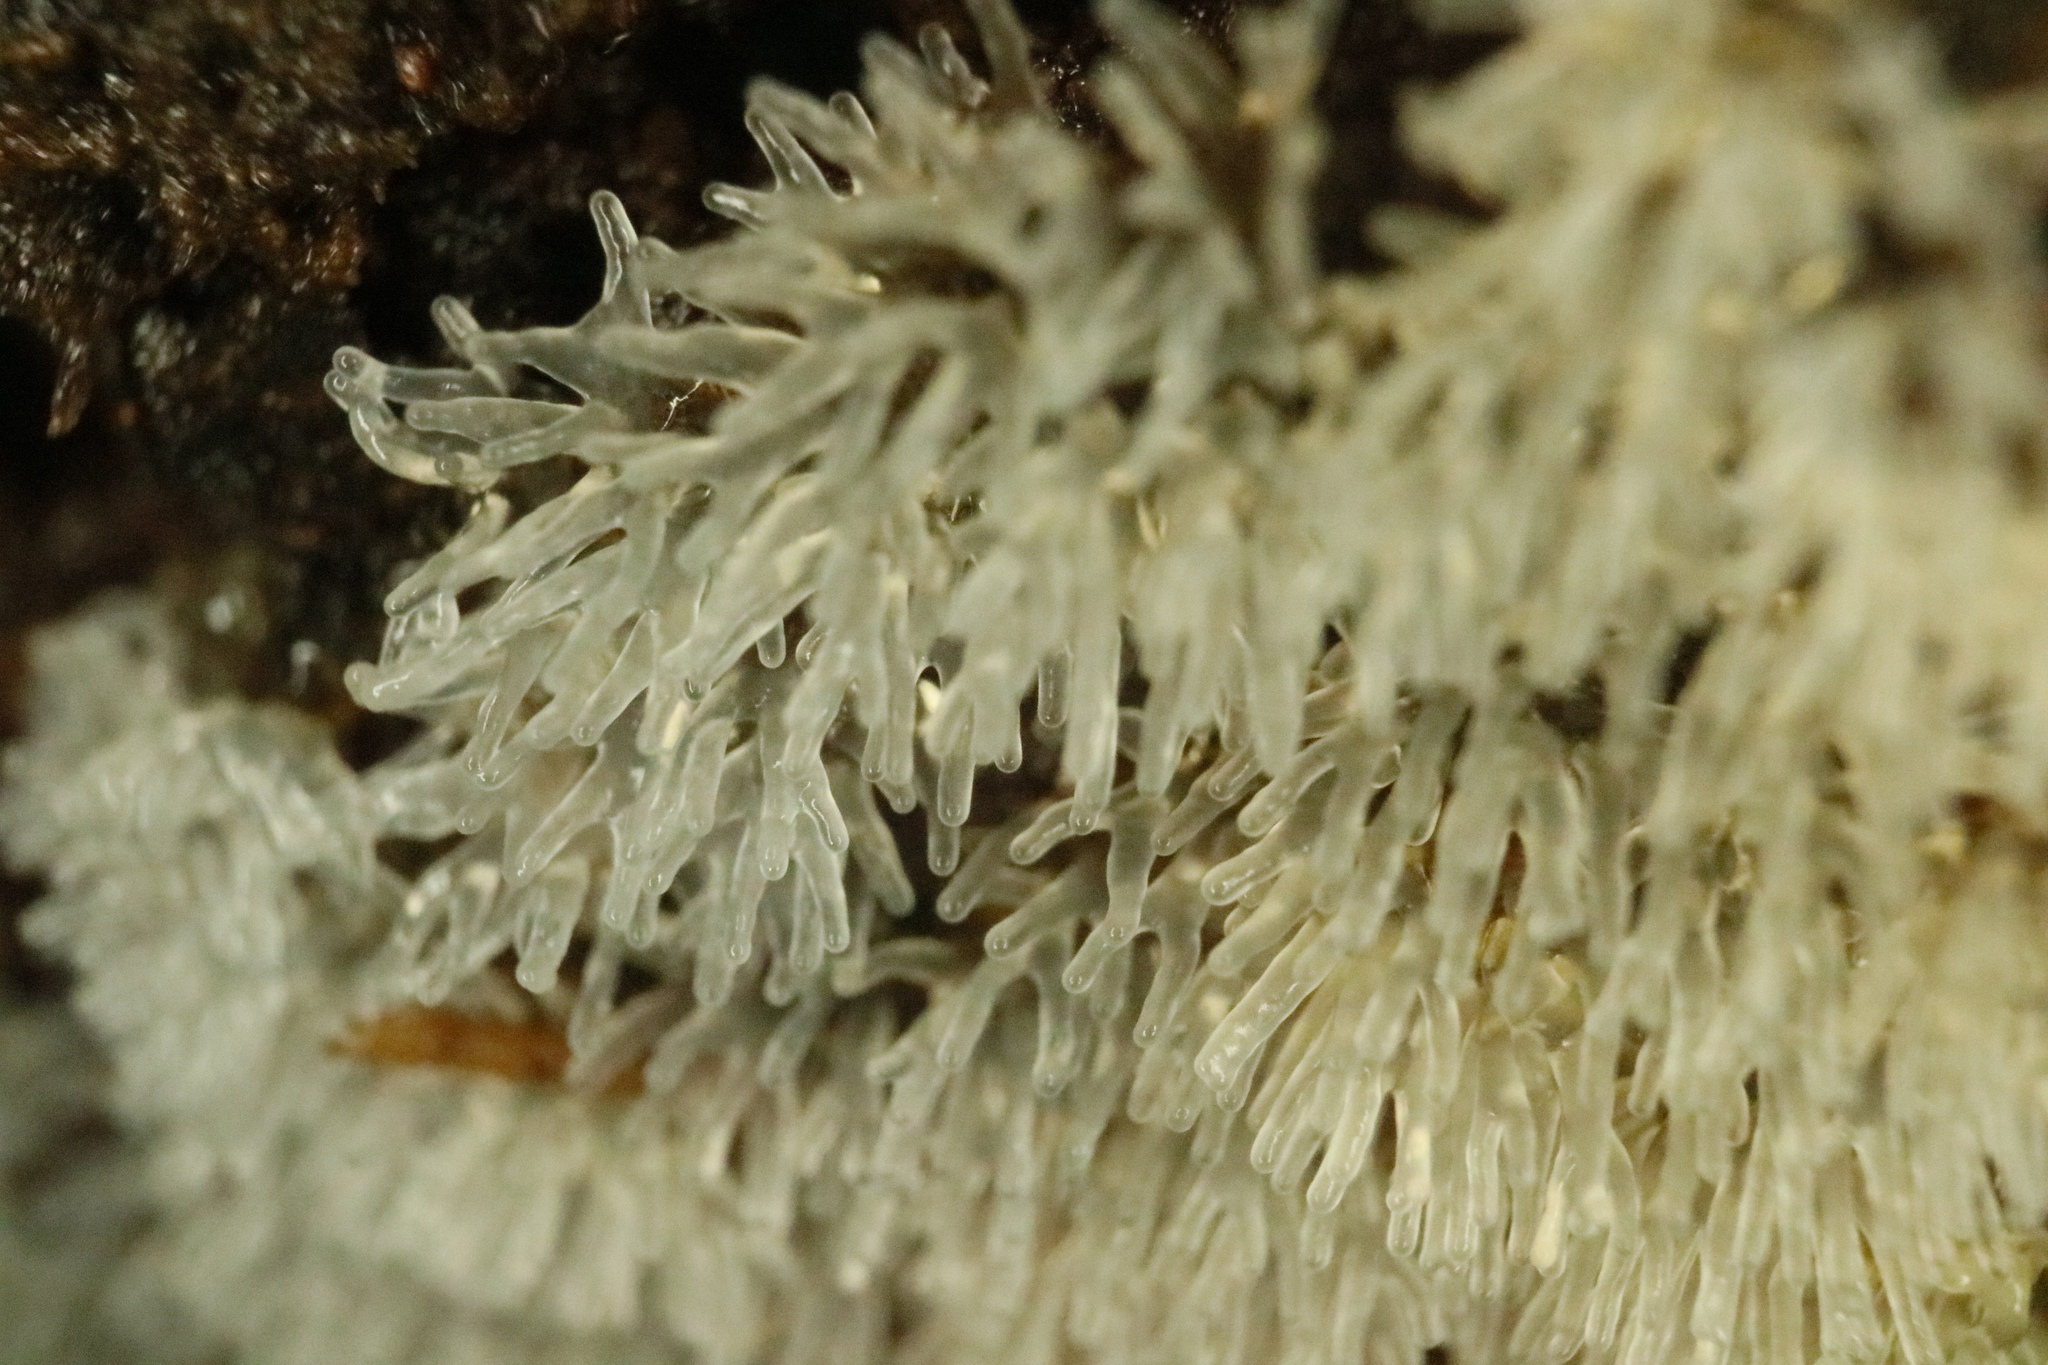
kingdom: Protozoa
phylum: Mycetozoa
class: Protosteliomycetes
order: Ceratiomyxales
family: Ceratiomyxaceae
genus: Ceratiomyxa
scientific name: Ceratiomyxa fruticulosa
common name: Honeycomb coral slime mold
